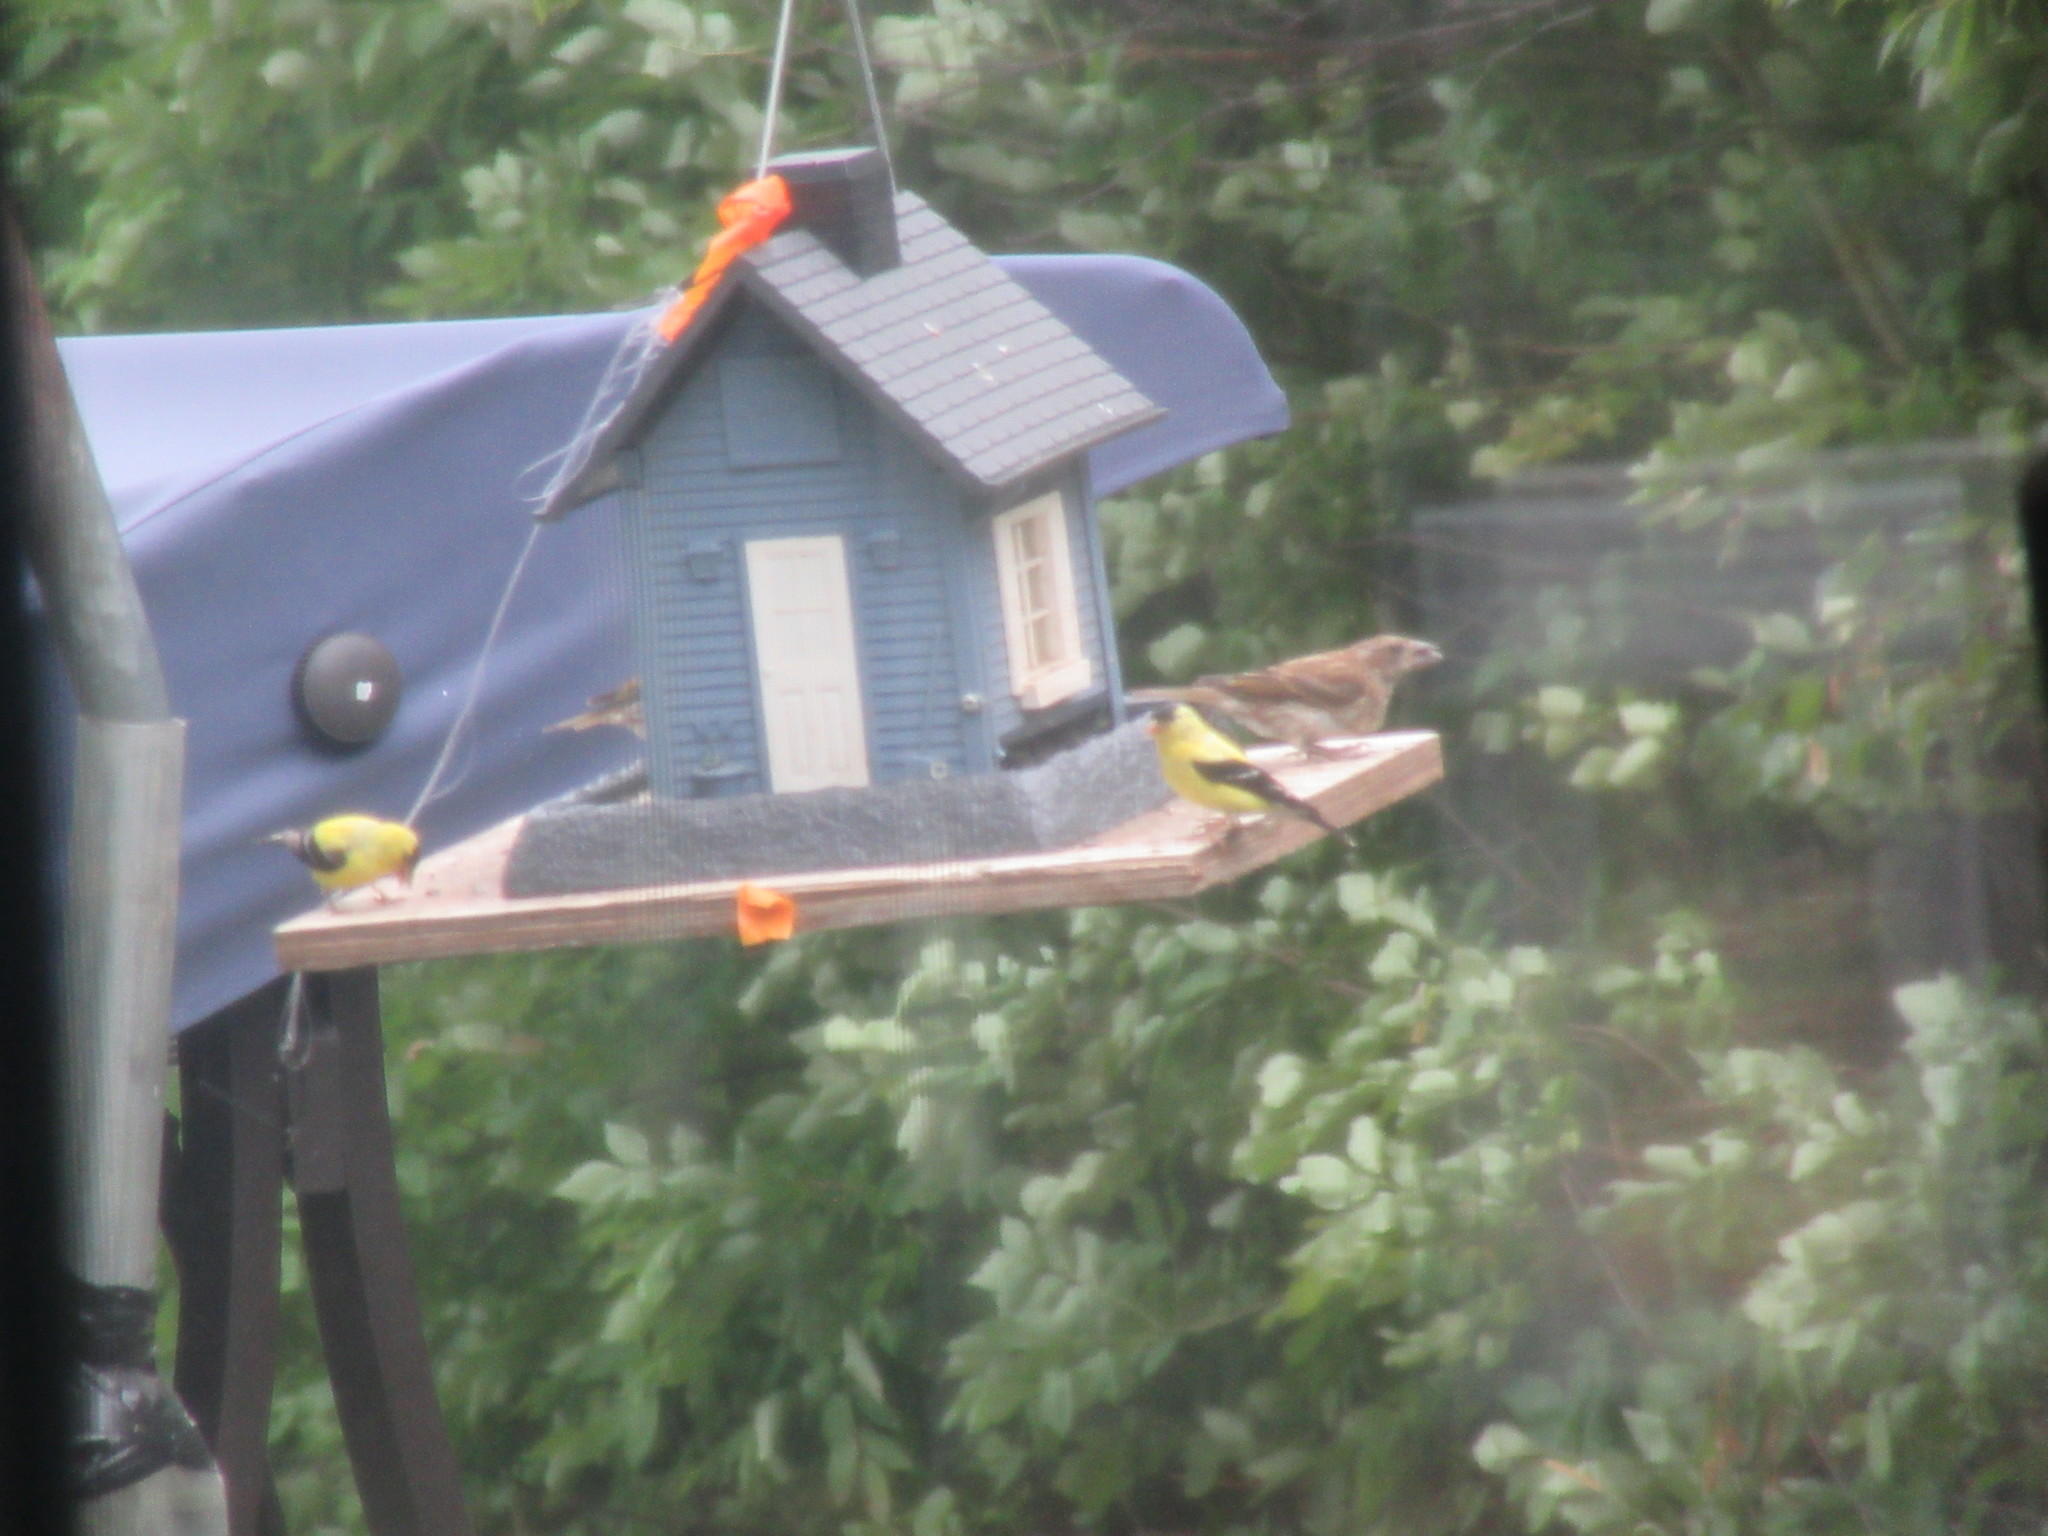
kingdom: Animalia
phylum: Chordata
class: Aves
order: Passeriformes
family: Fringillidae
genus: Spinus
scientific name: Spinus tristis
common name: American goldfinch
